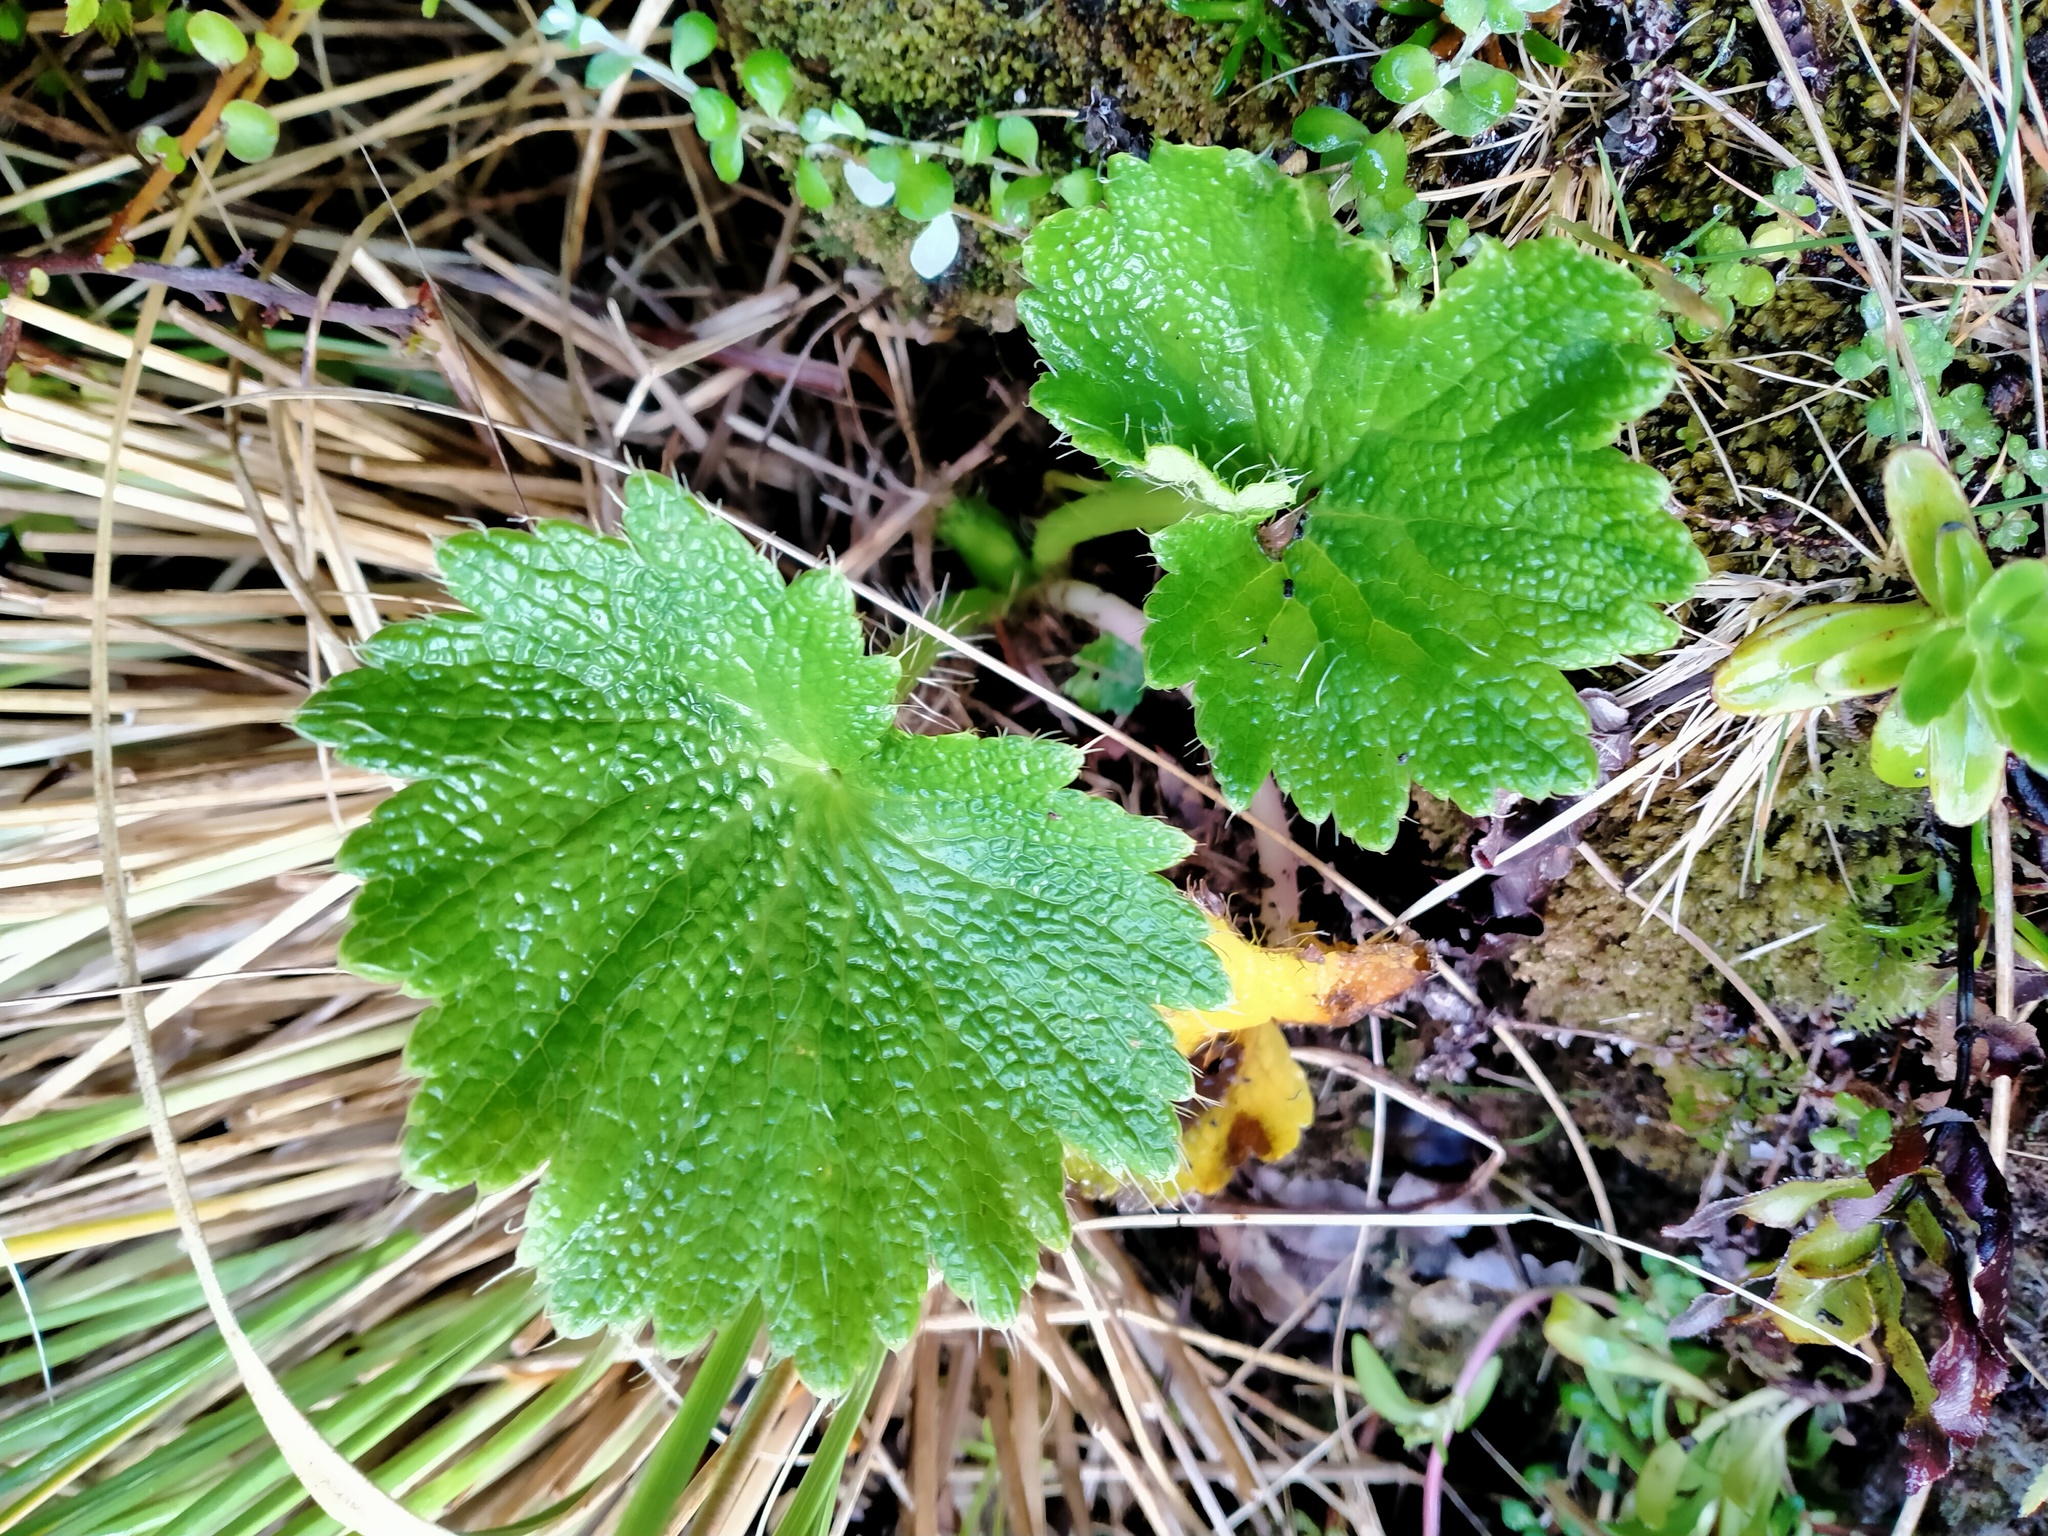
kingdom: Plantae
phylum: Tracheophyta
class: Magnoliopsida
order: Apiales
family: Apiaceae
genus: Azorella
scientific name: Azorella polaris
